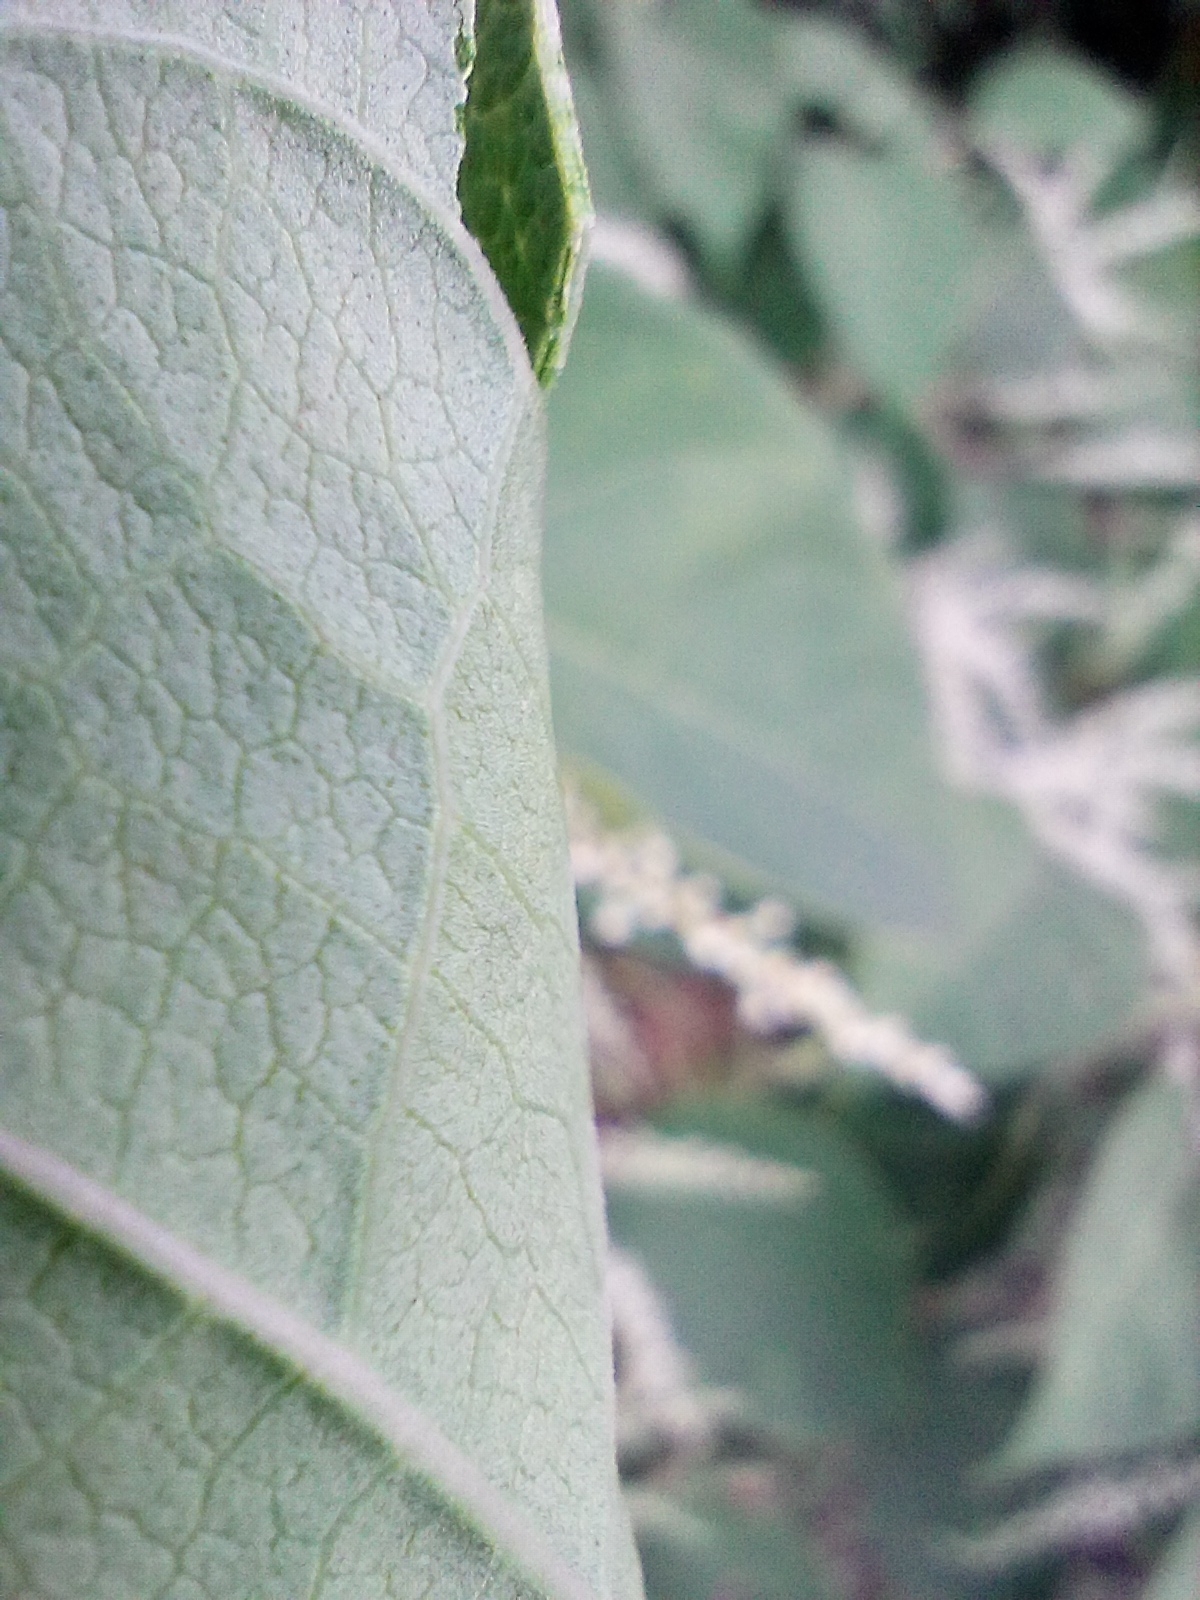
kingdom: Plantae
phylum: Tracheophyta
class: Magnoliopsida
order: Caryophyllales
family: Polygonaceae
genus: Reynoutria
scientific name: Reynoutria japonica
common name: Japanese knotweed
